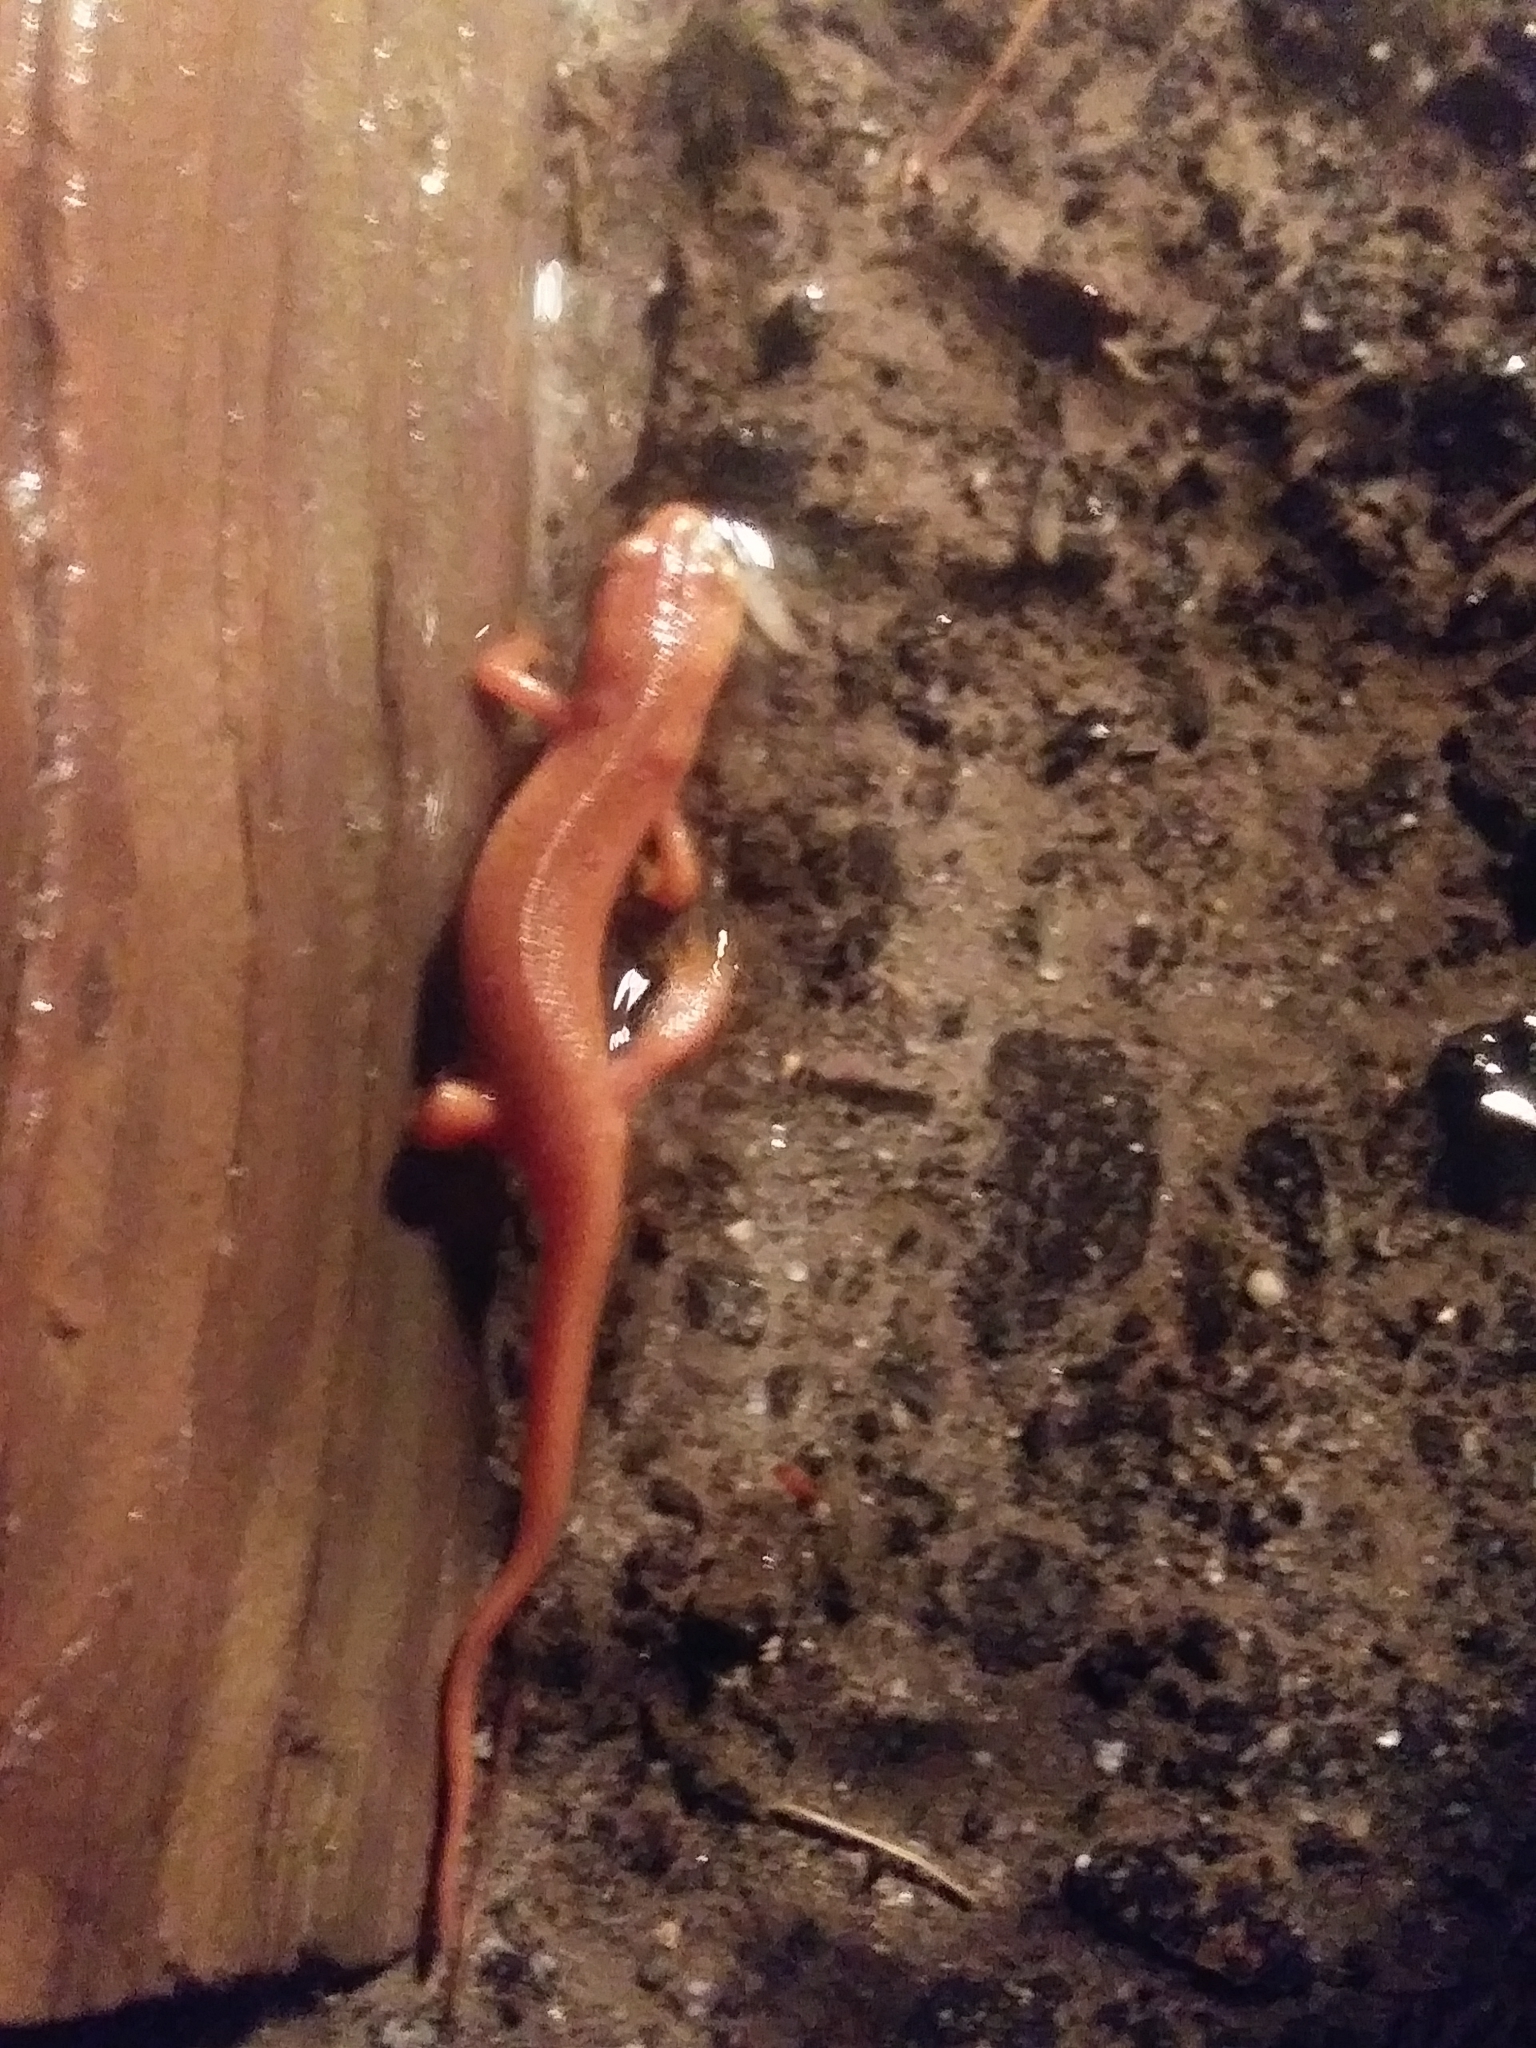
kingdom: Animalia
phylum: Chordata
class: Amphibia
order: Caudata
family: Salamandridae
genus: Notophthalmus
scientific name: Notophthalmus viridescens
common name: Eastern newt
